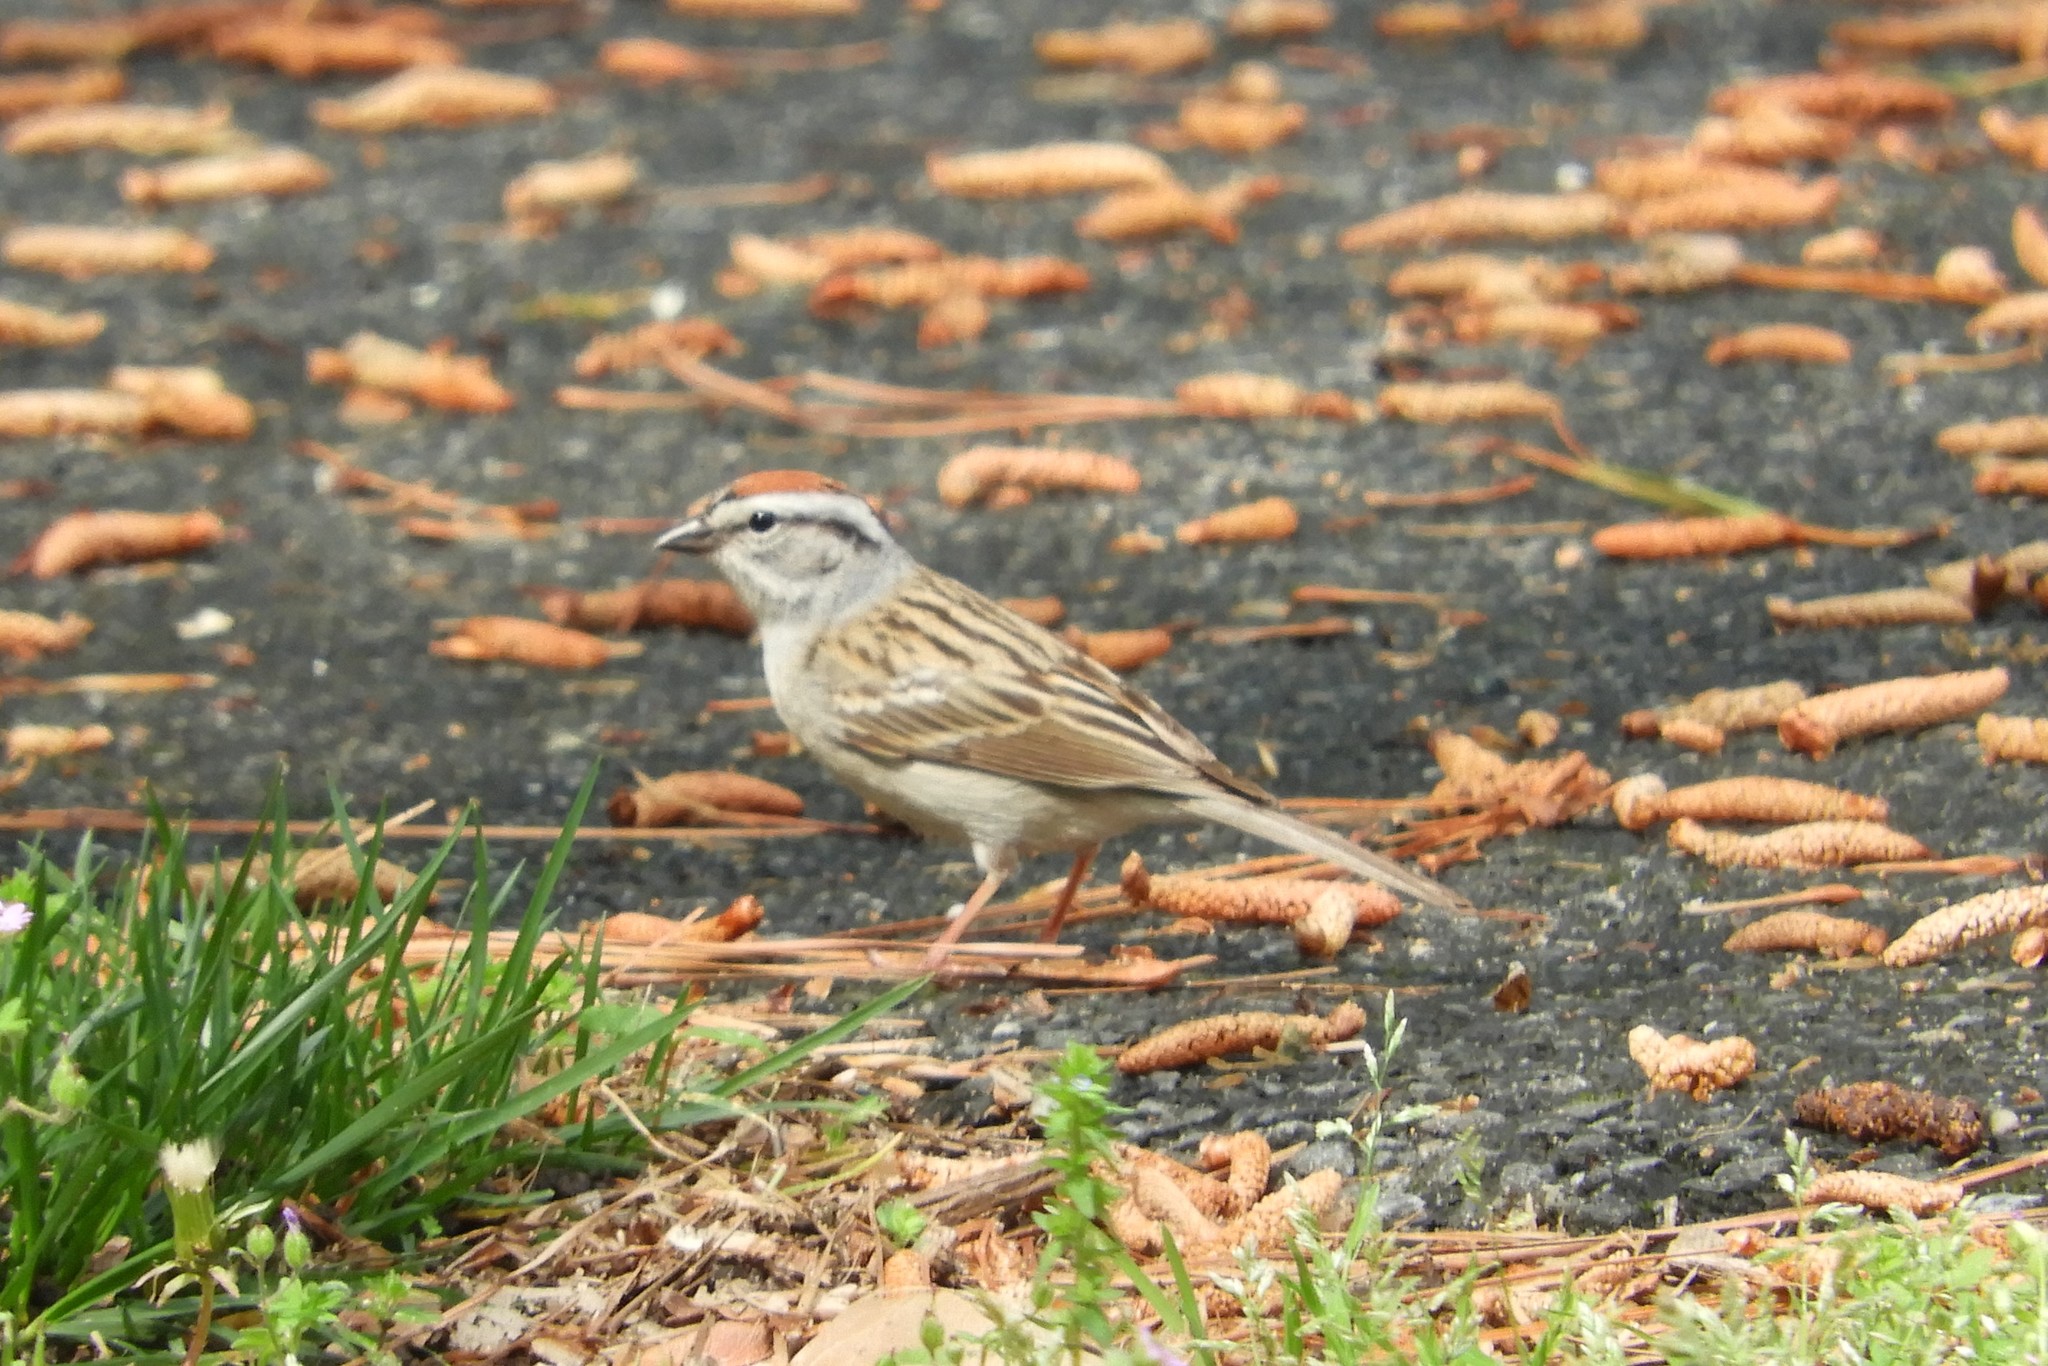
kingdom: Animalia
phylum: Chordata
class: Aves
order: Passeriformes
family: Passerellidae
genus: Spizella
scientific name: Spizella passerina
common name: Chipping sparrow
